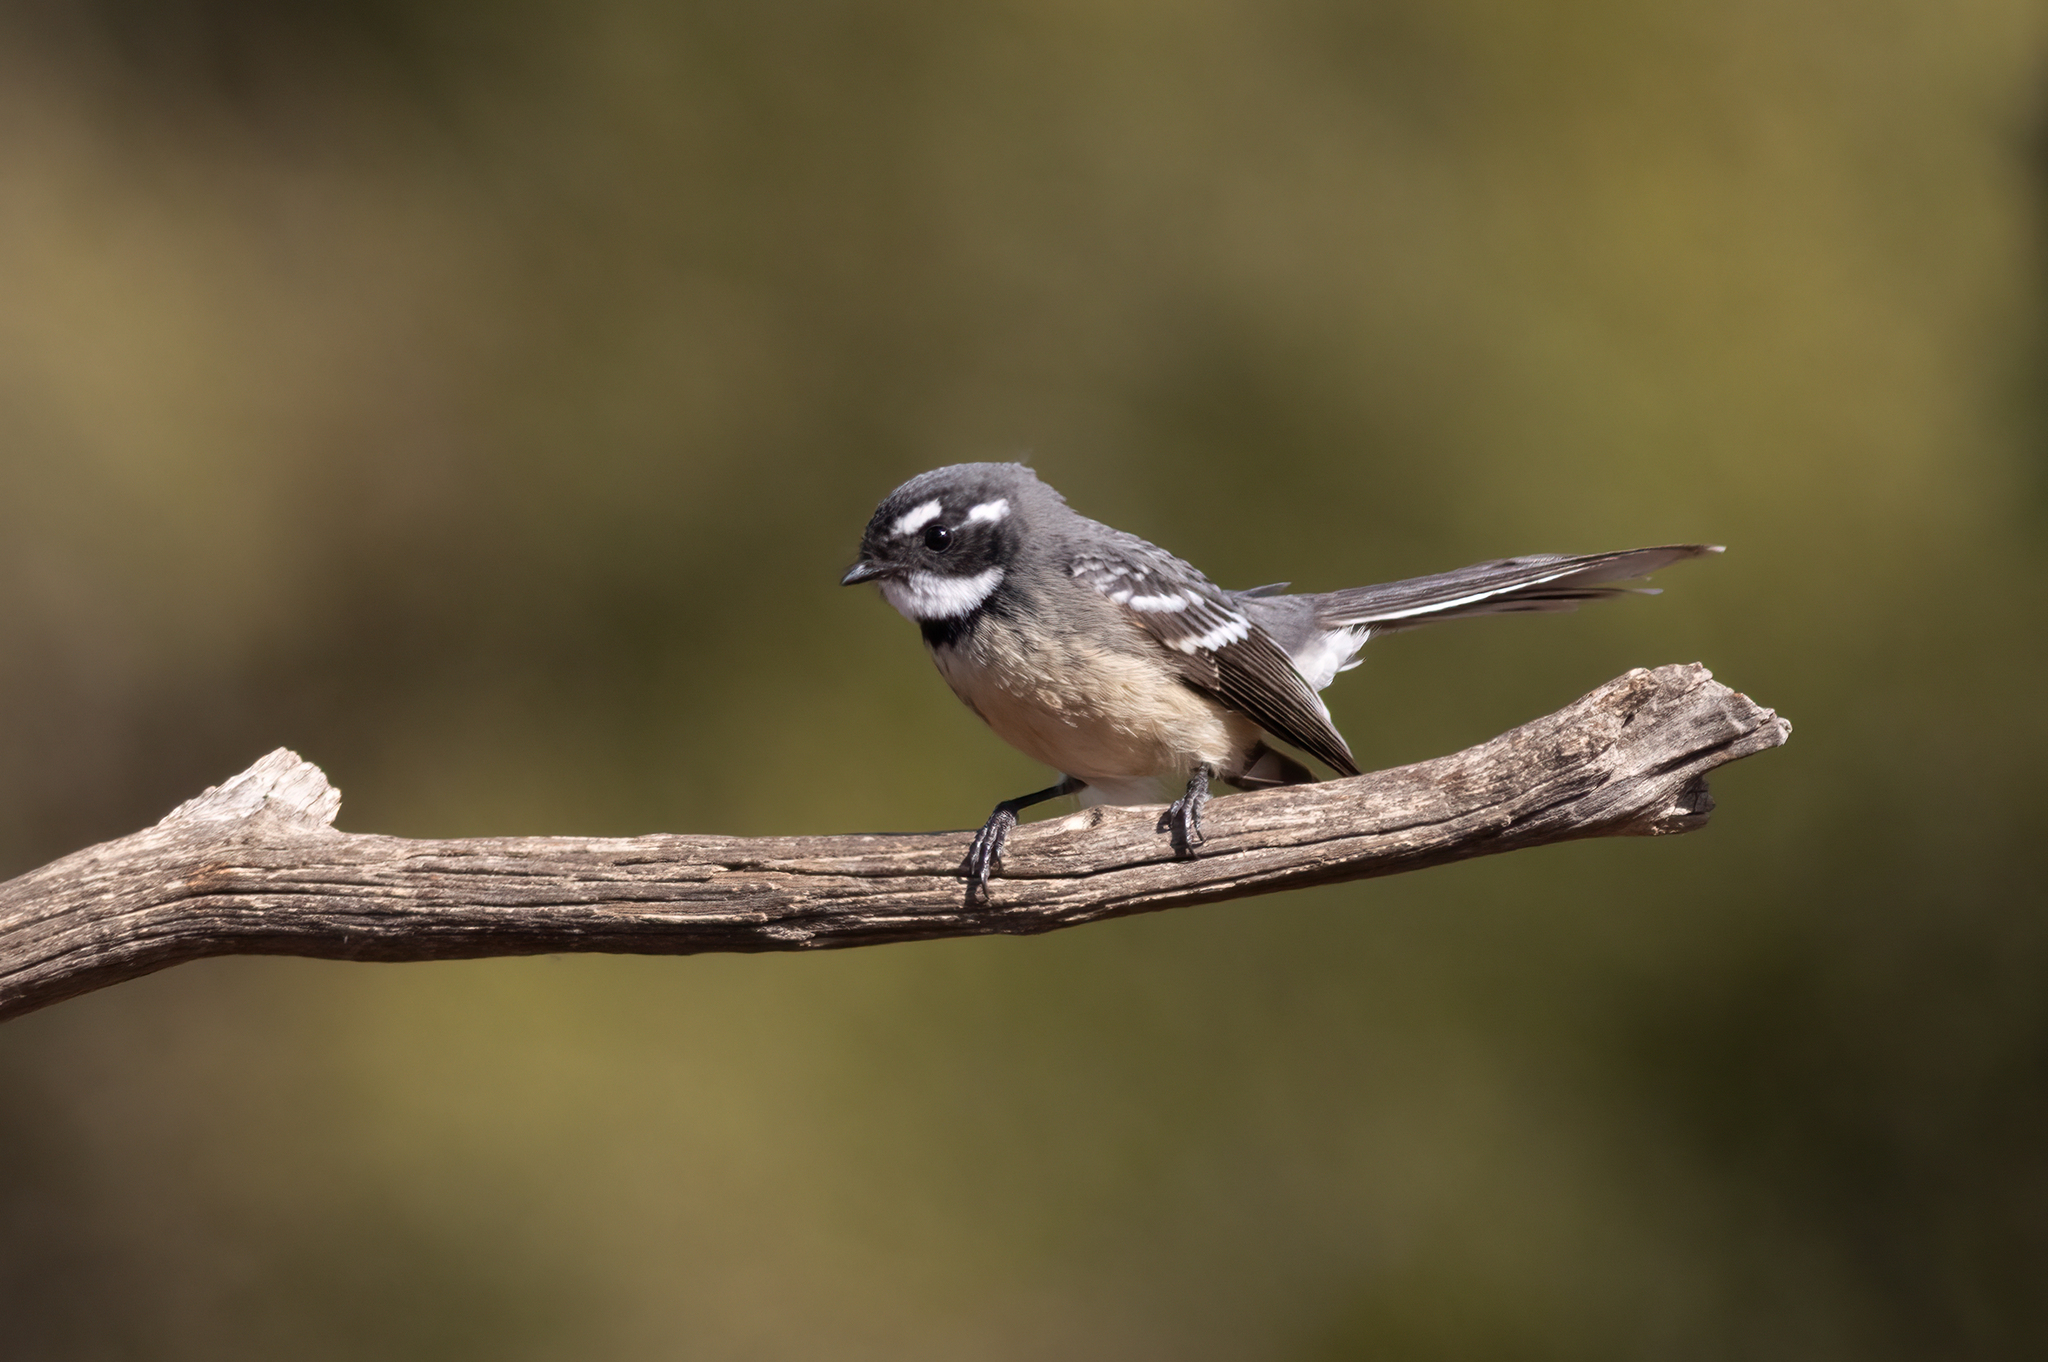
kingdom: Animalia
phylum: Chordata
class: Aves
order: Passeriformes
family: Rhipiduridae
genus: Rhipidura
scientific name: Rhipidura albiscapa
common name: Grey fantail
